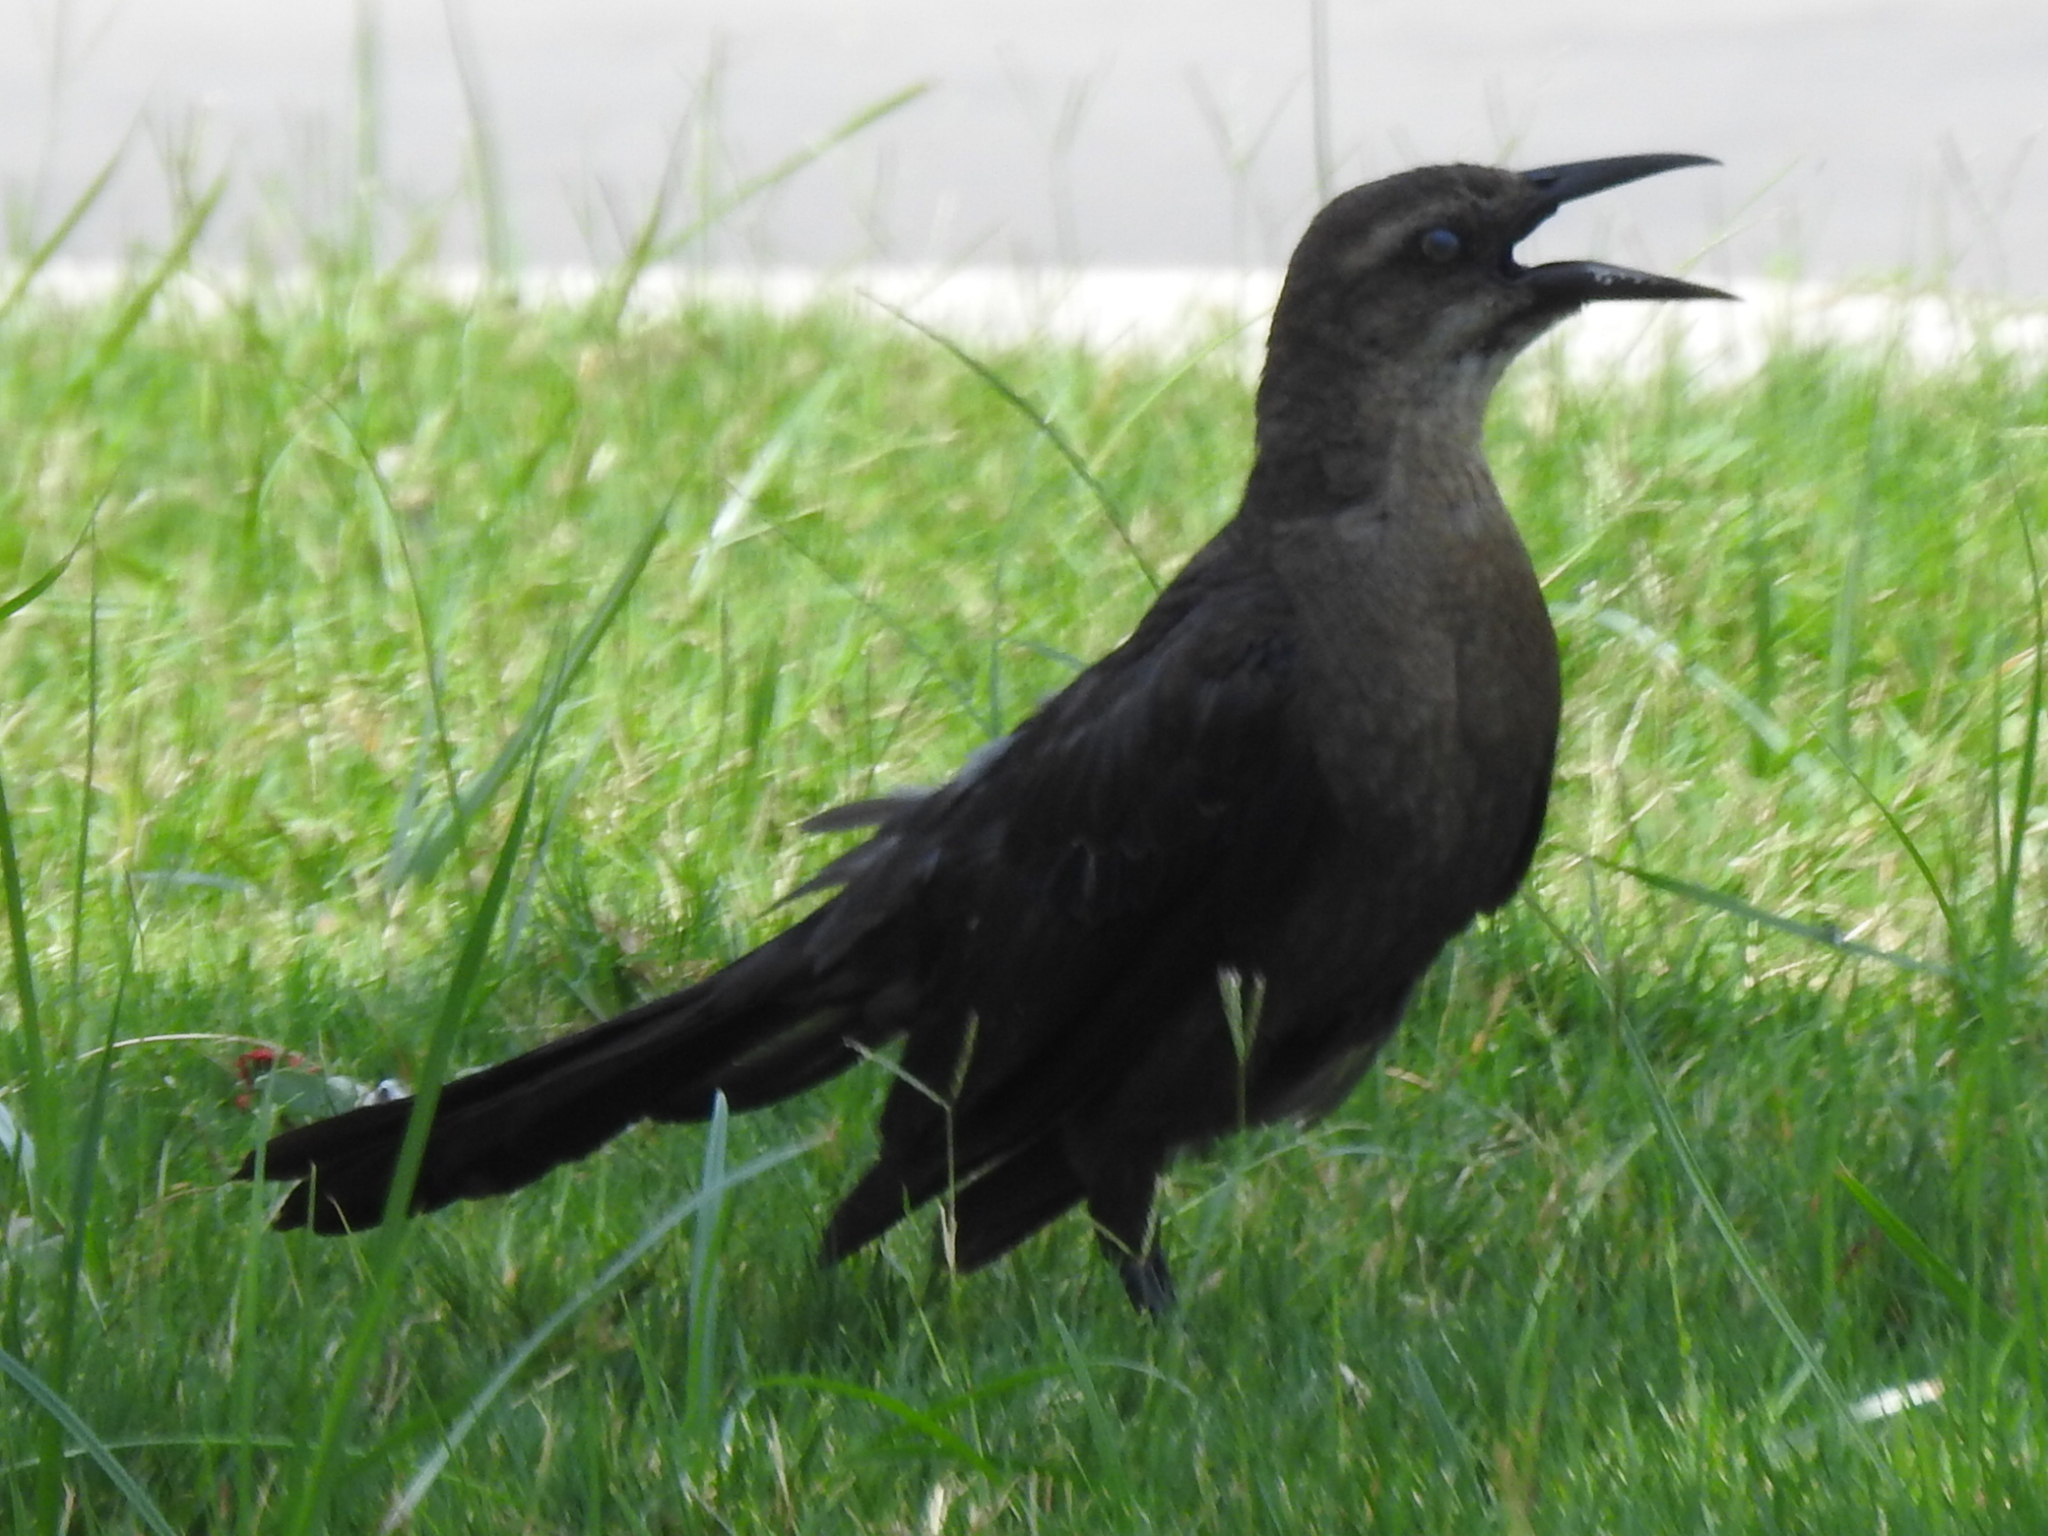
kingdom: Animalia
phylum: Chordata
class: Aves
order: Passeriformes
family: Icteridae
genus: Quiscalus
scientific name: Quiscalus mexicanus
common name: Great-tailed grackle
